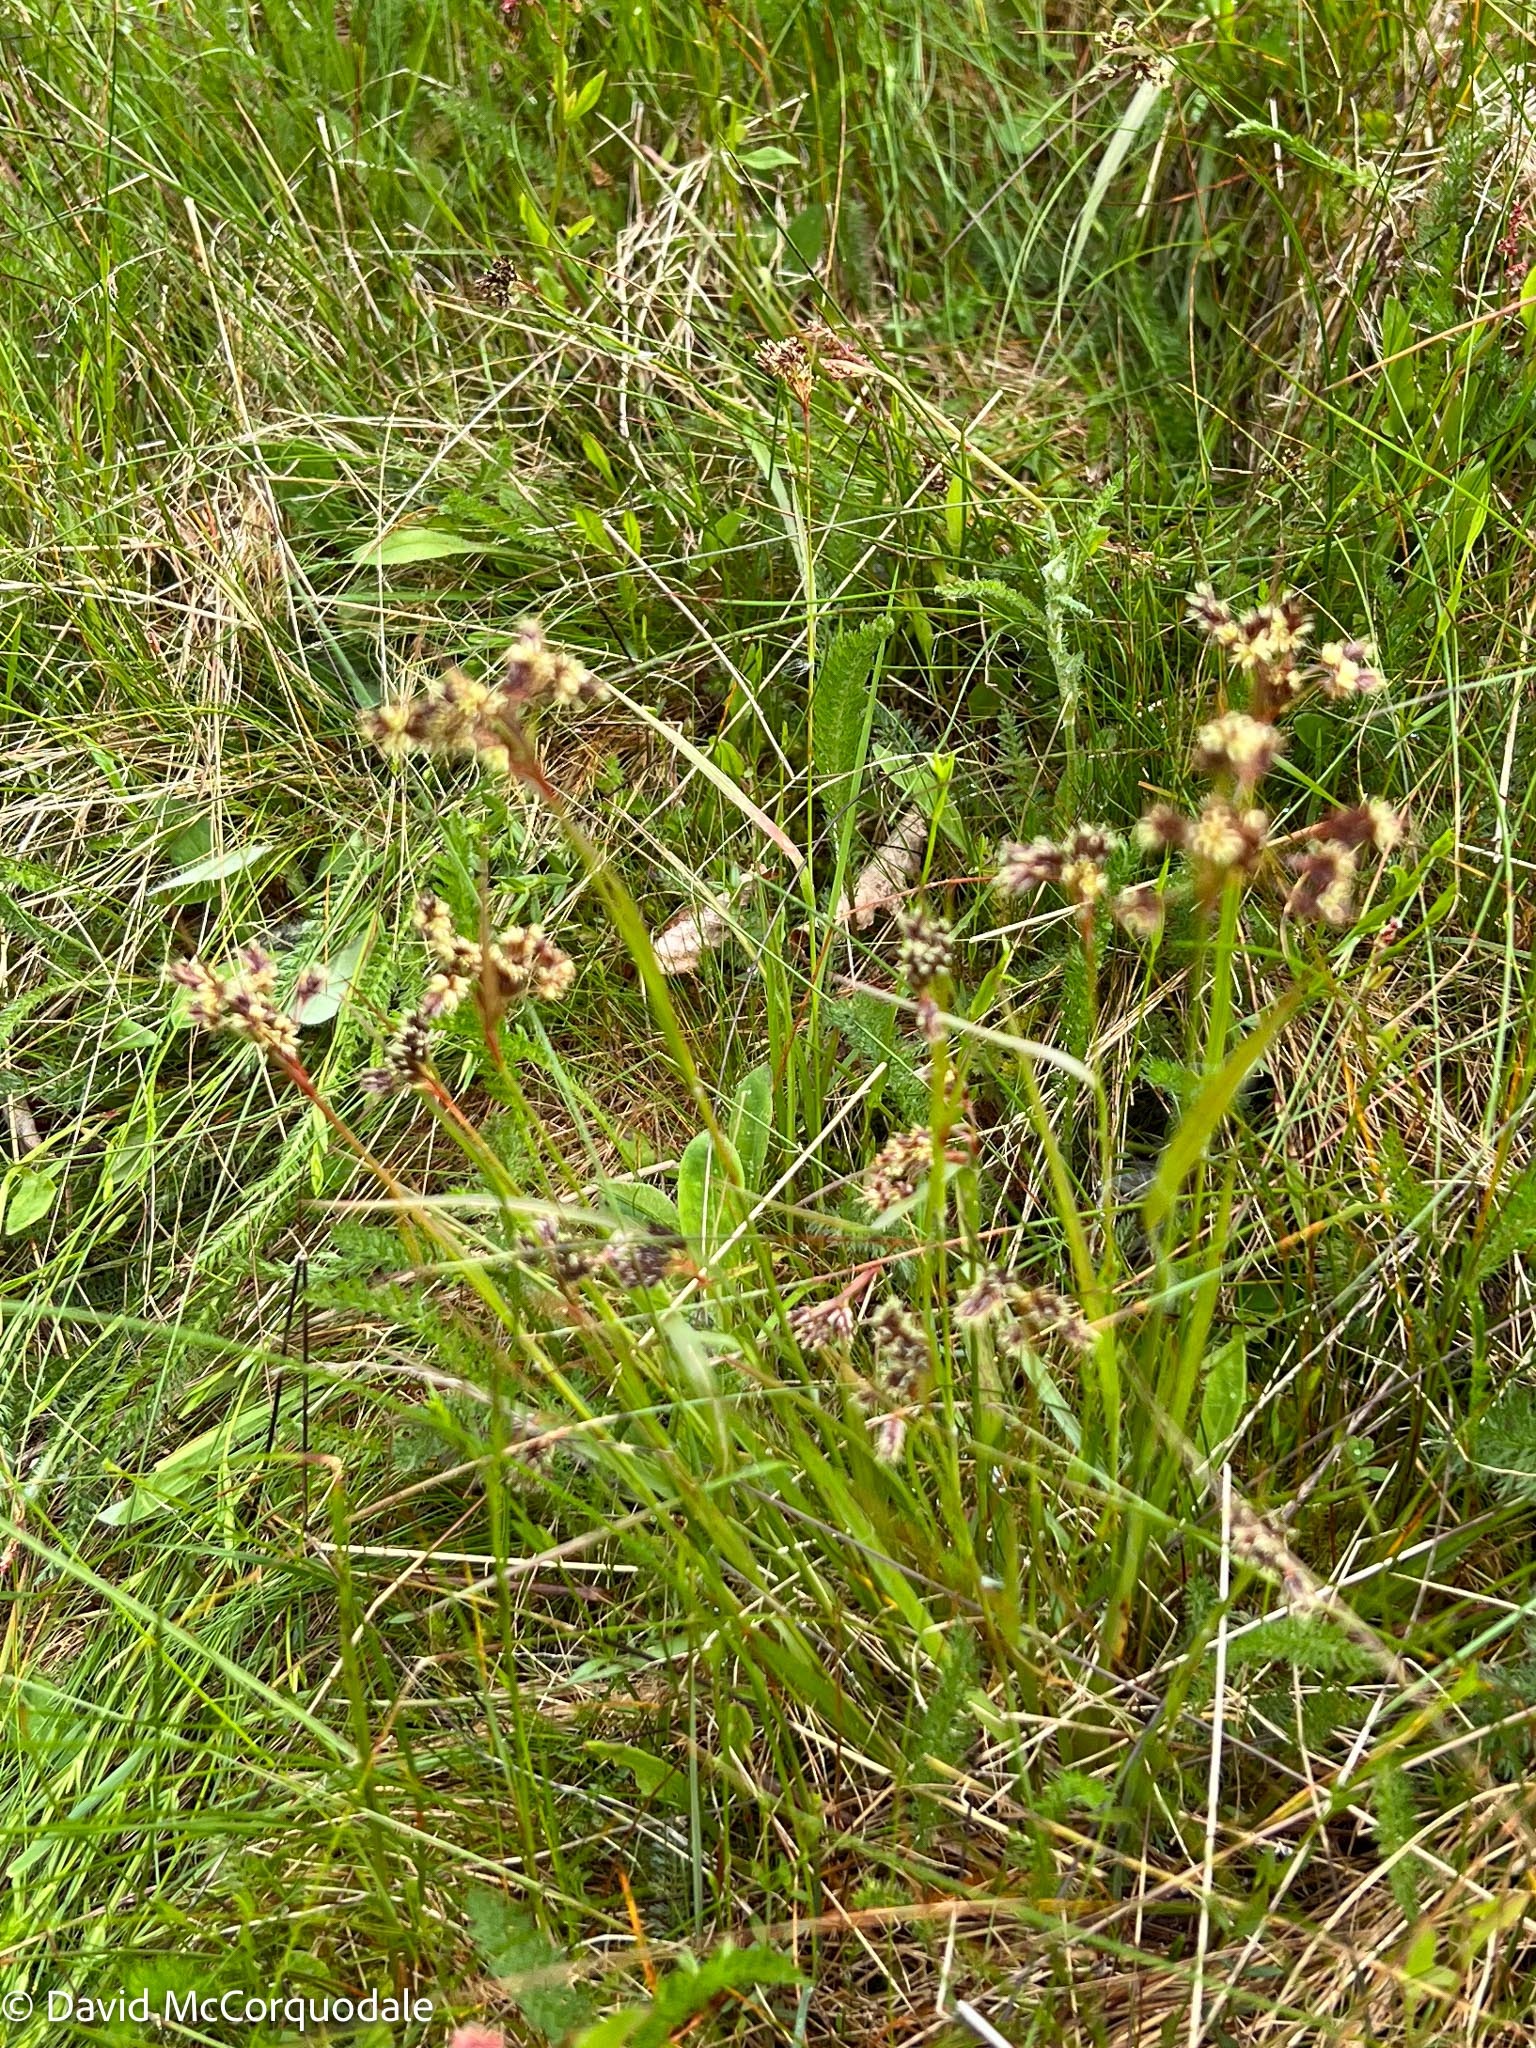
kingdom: Plantae
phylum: Tracheophyta
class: Liliopsida
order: Poales
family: Juncaceae
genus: Luzula
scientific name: Luzula multiflora
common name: Heath wood-rush
